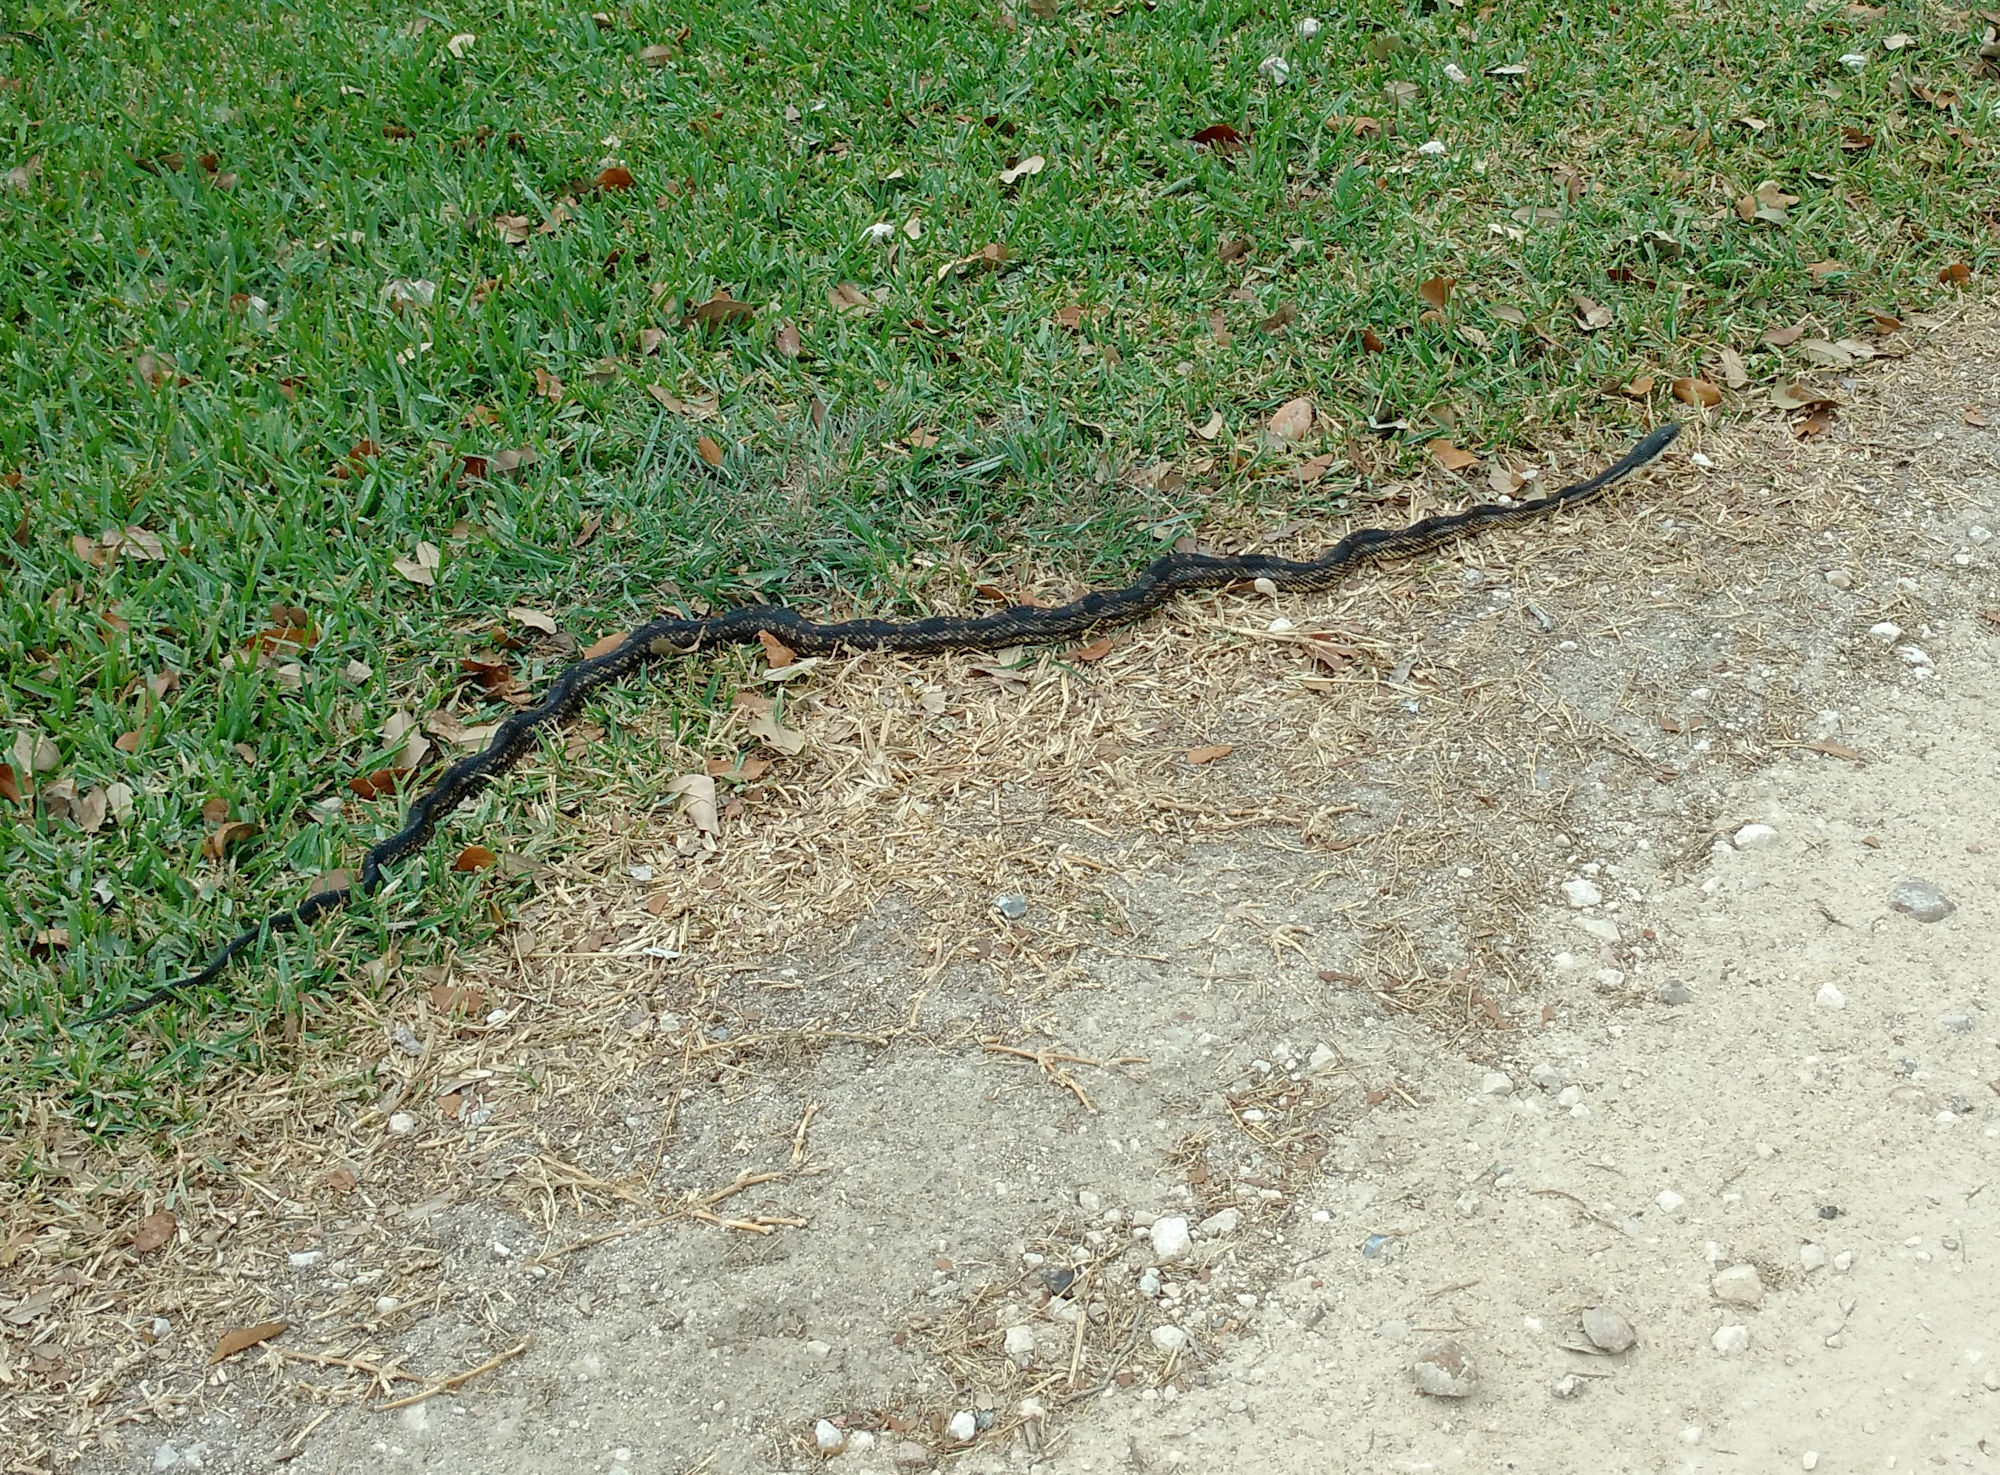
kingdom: Animalia
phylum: Chordata
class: Squamata
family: Colubridae
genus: Pantherophis
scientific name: Pantherophis obsoletus
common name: Black rat snake
